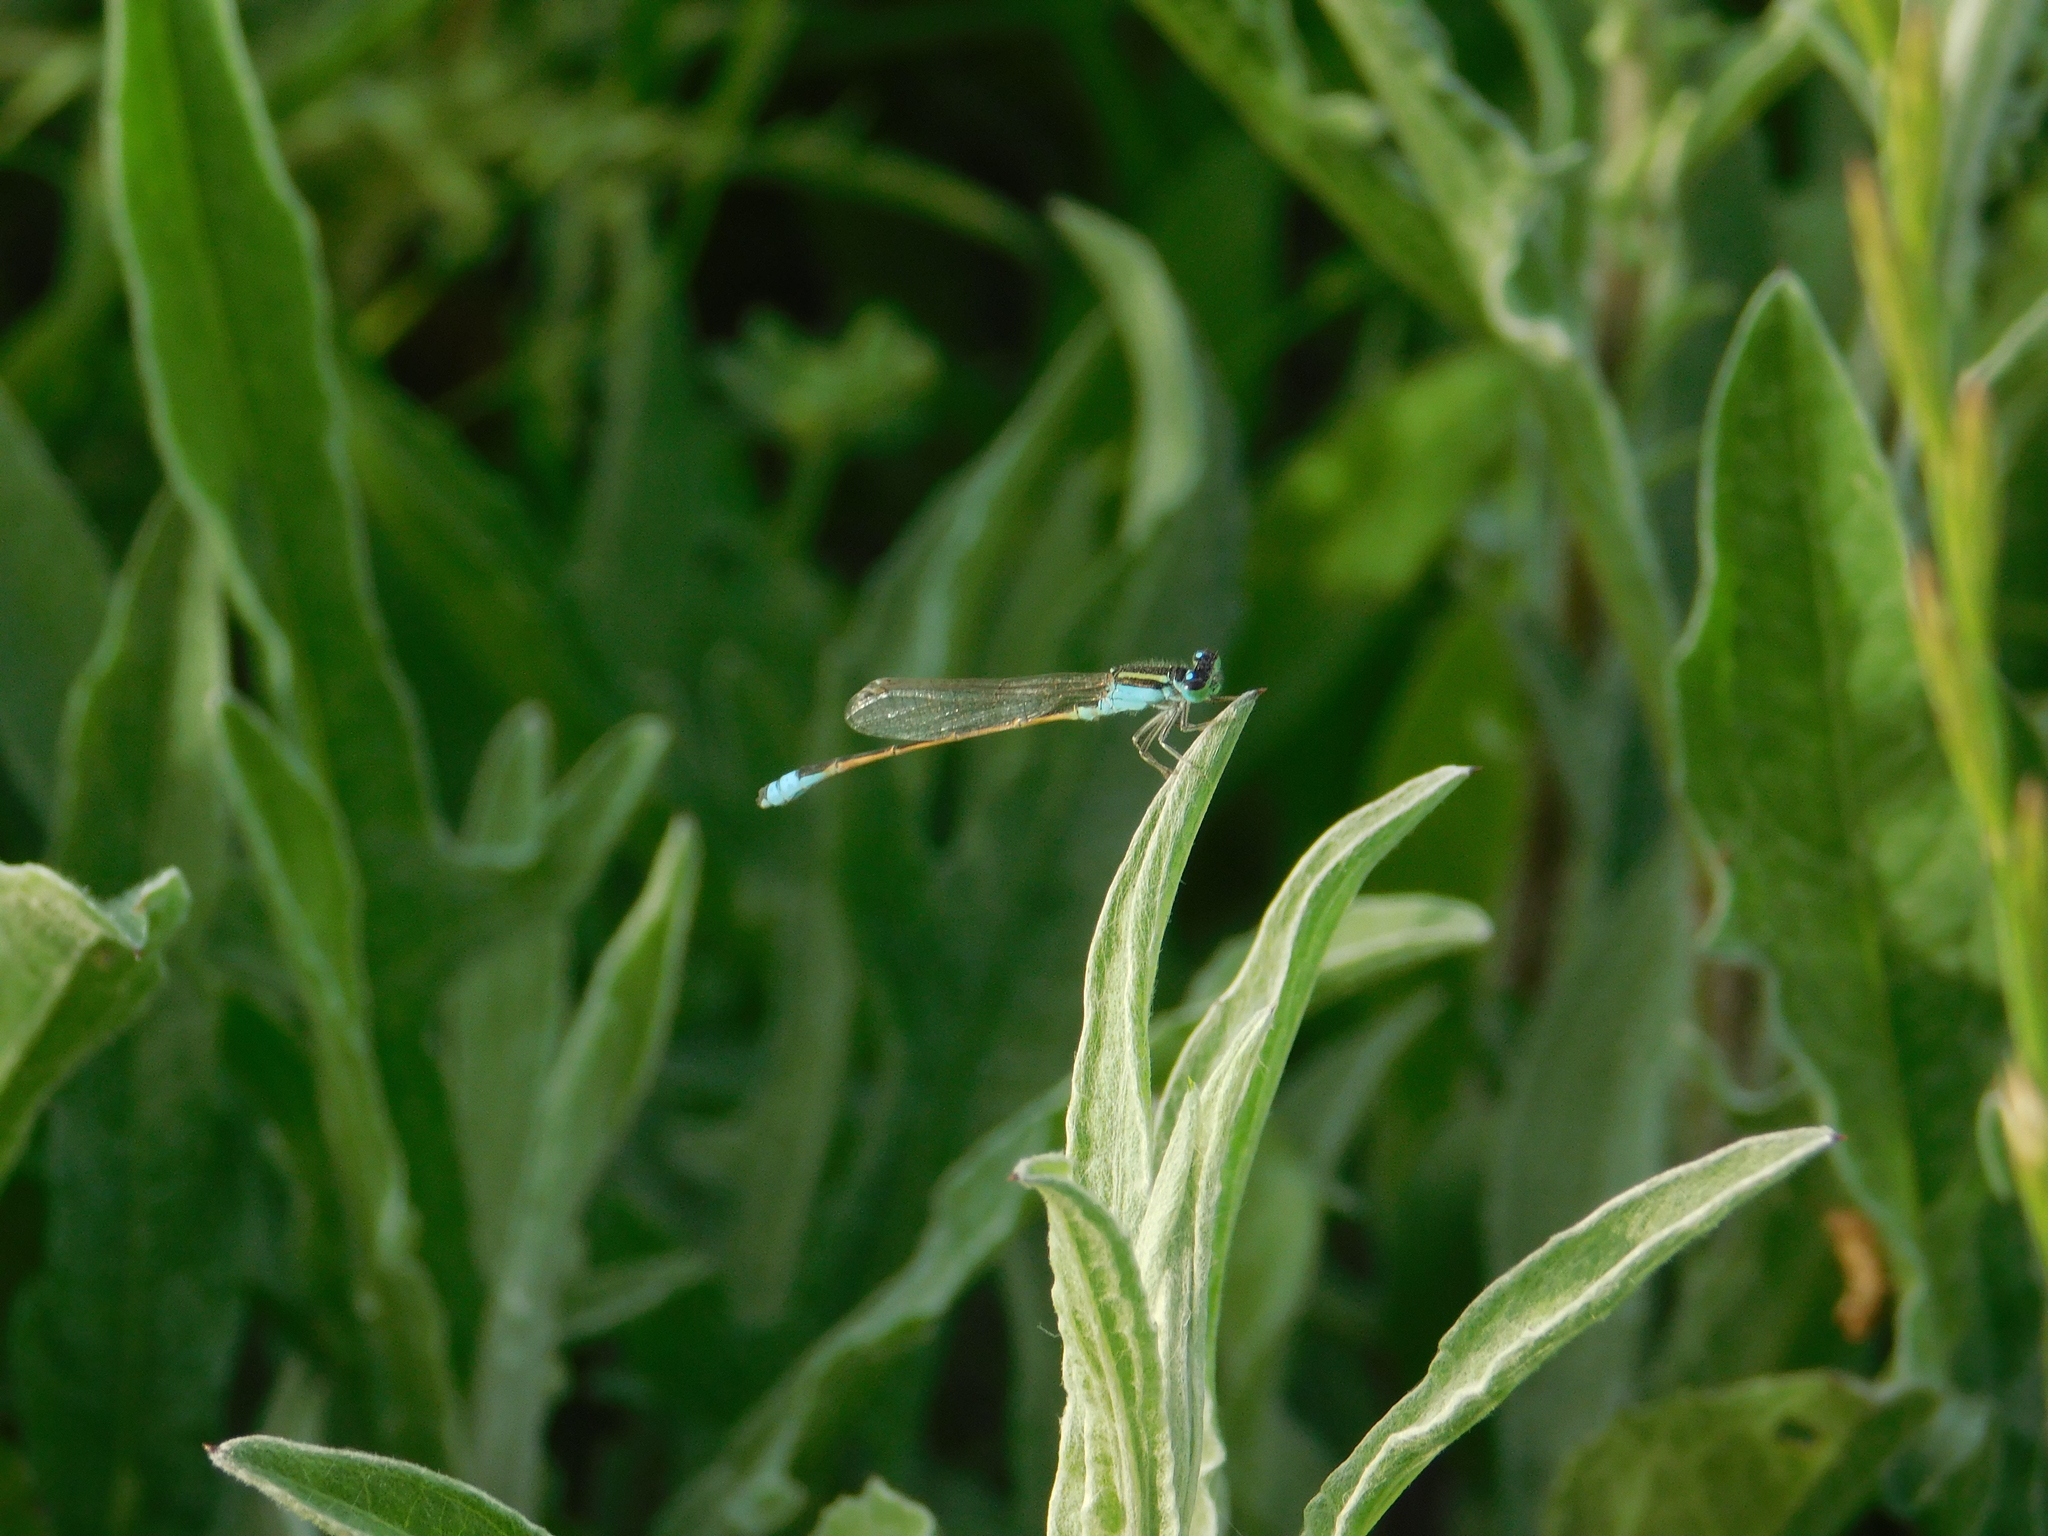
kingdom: Animalia
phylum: Arthropoda
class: Insecta
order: Odonata
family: Coenagrionidae
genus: Ischnura
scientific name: Ischnura fluviatilis
